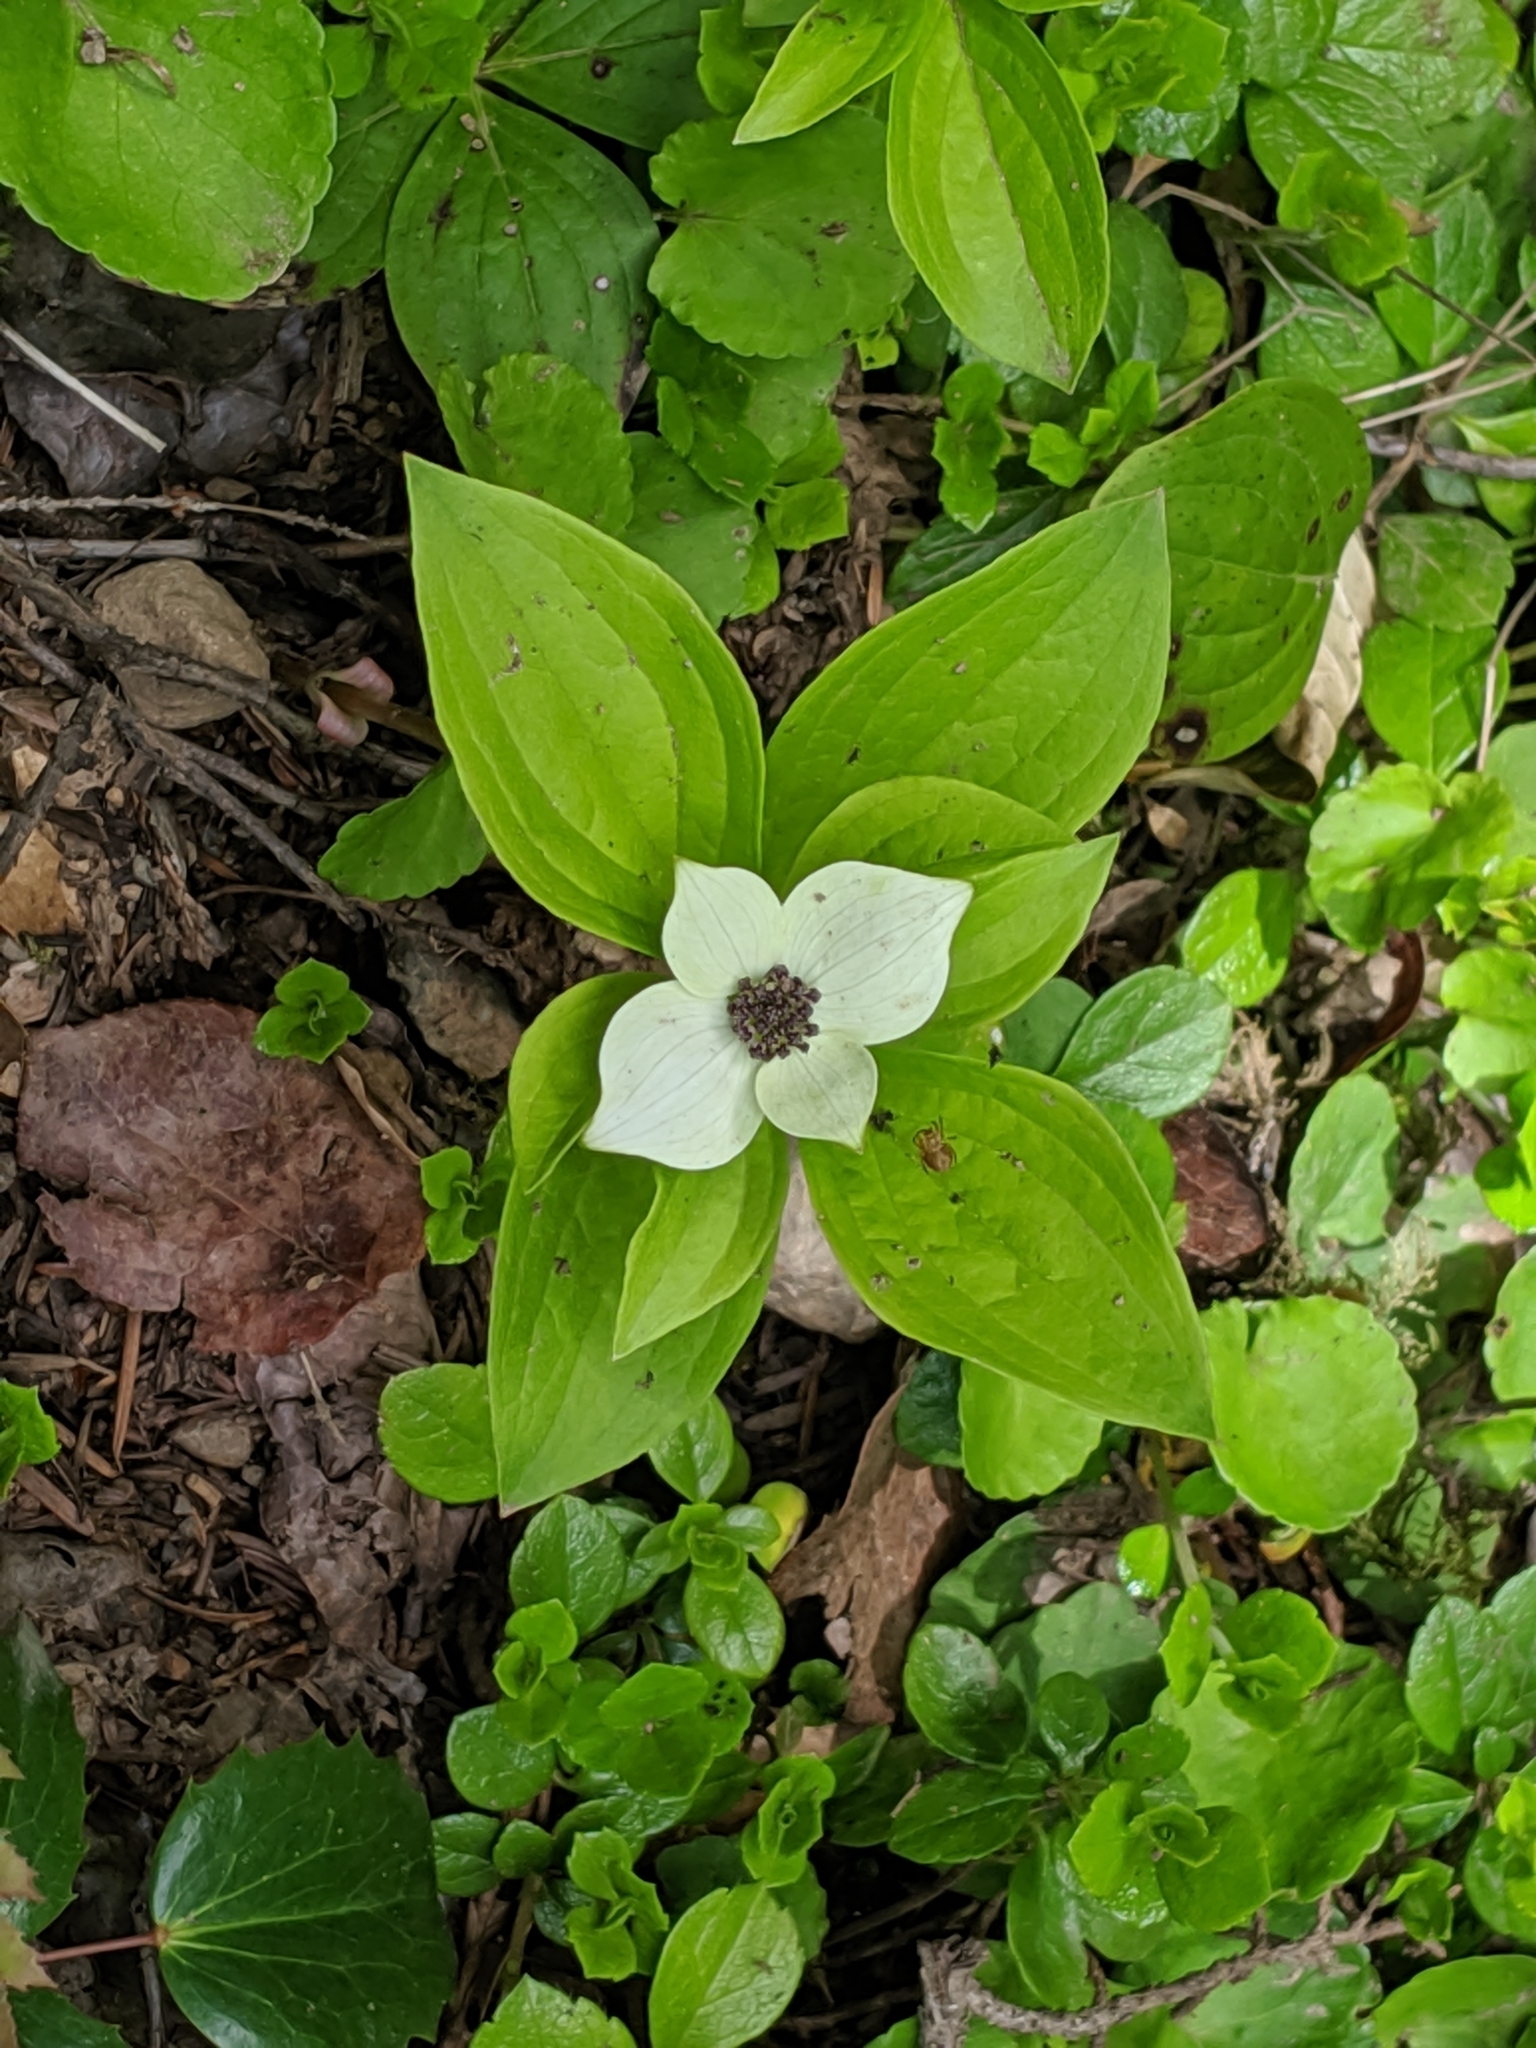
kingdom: Plantae
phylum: Tracheophyta
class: Magnoliopsida
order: Cornales
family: Cornaceae
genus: Cornus
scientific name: Cornus unalaschkensis
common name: Alaska bunchberry
